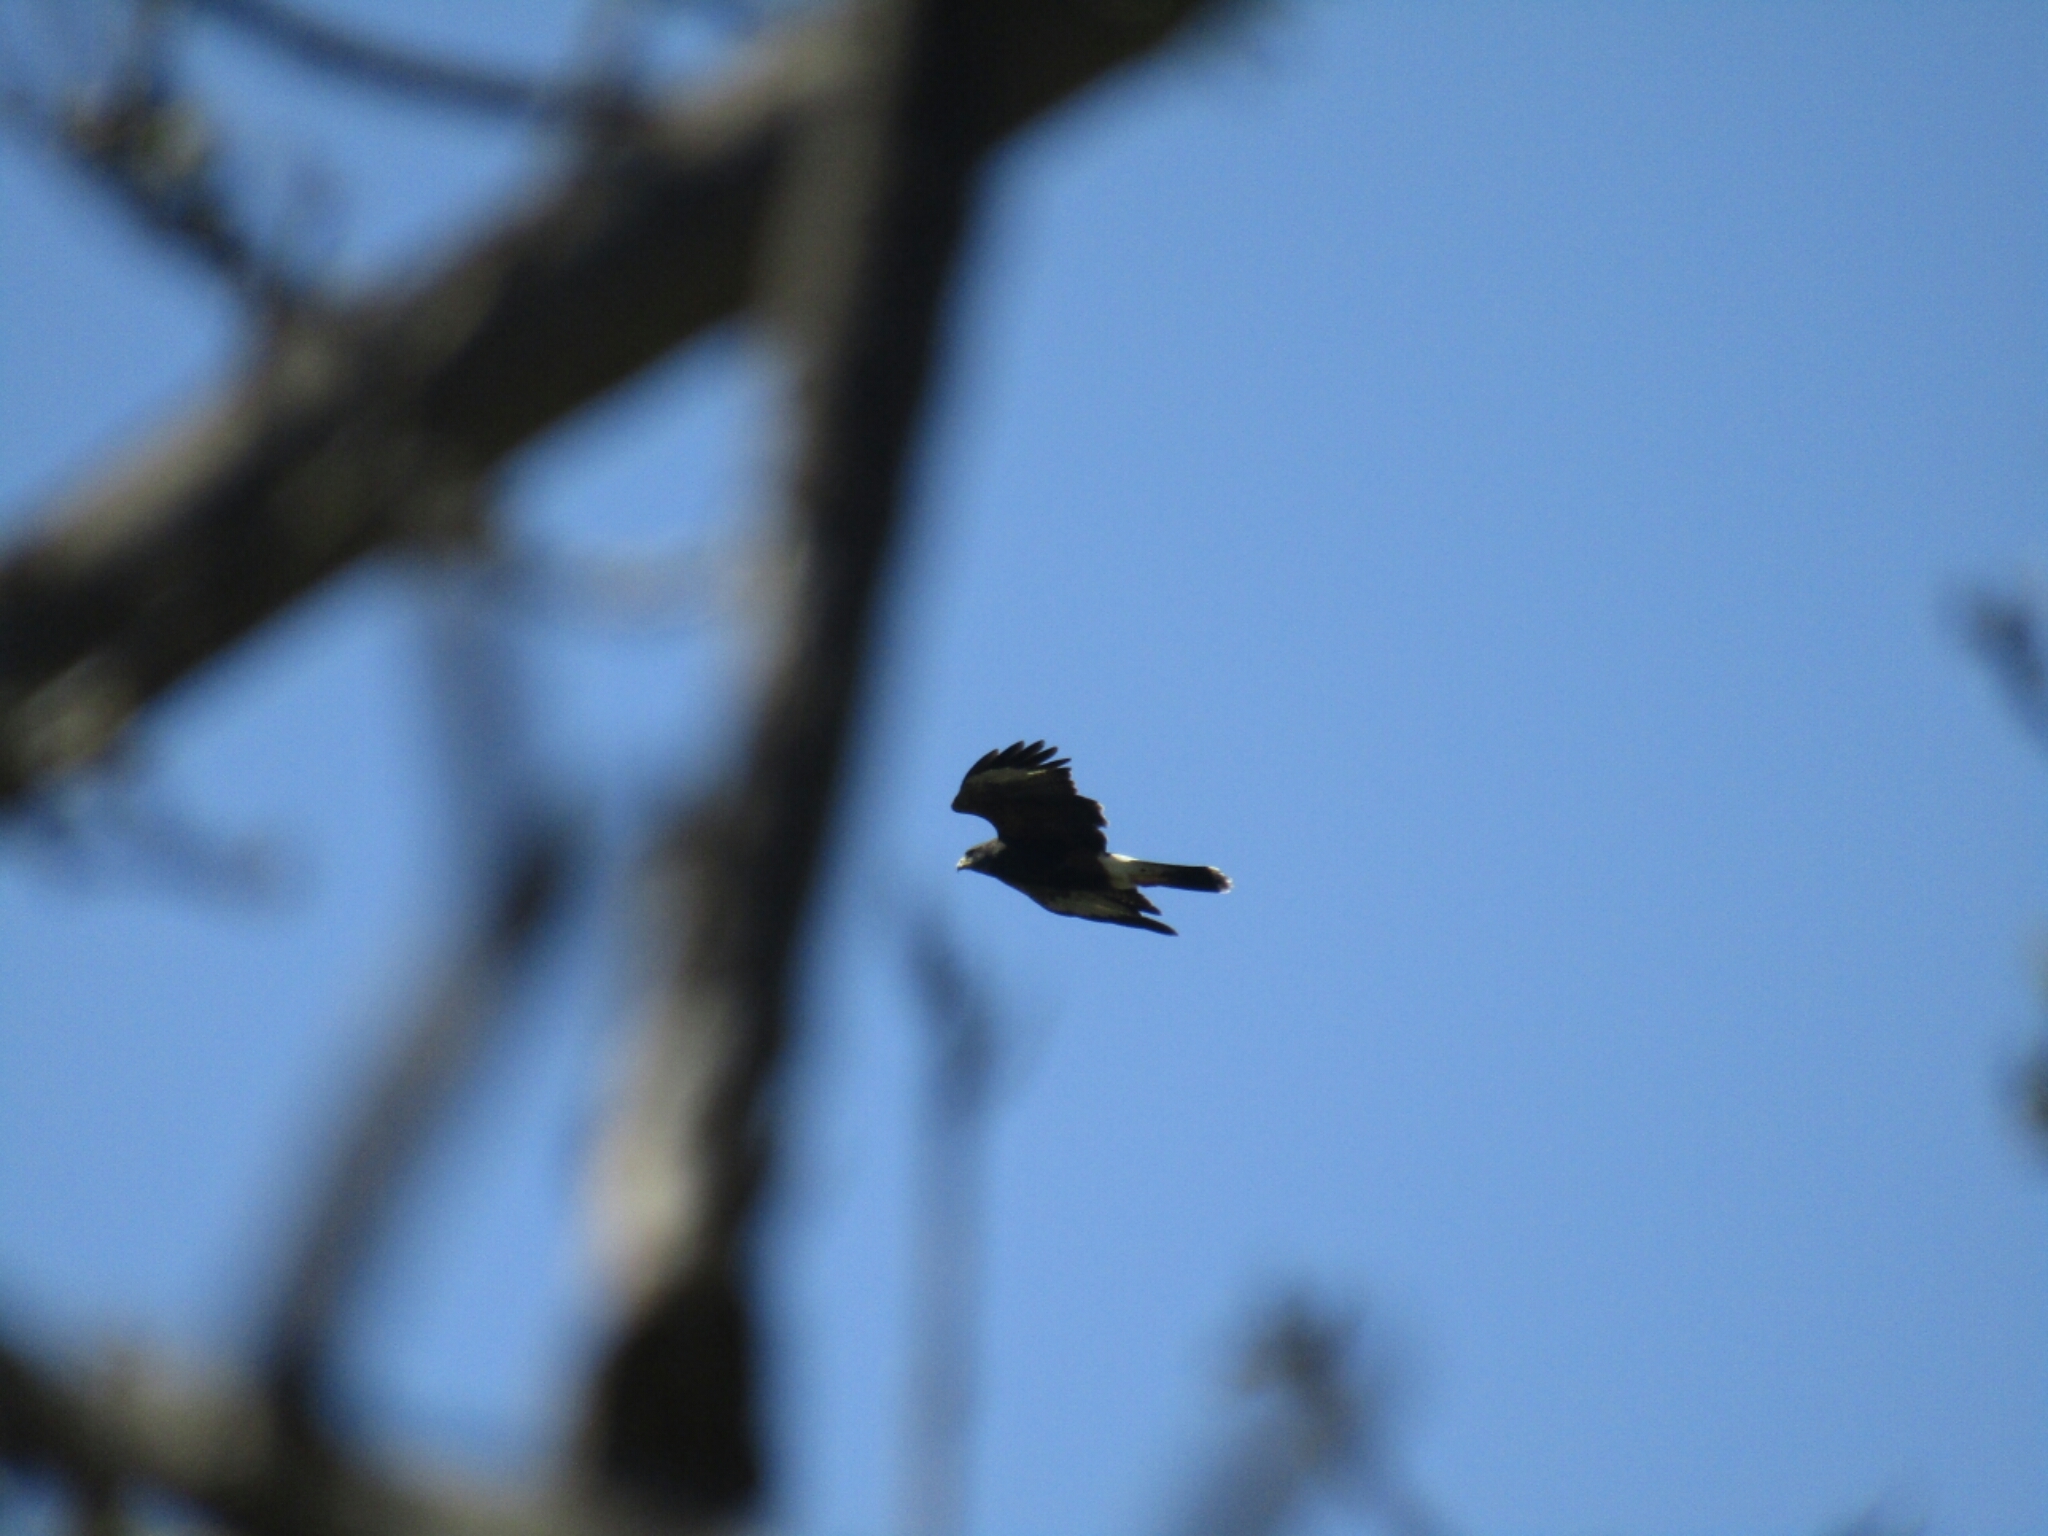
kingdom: Animalia
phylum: Chordata
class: Aves
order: Accipitriformes
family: Accipitridae
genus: Parabuteo
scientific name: Parabuteo unicinctus
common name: Harris's hawk
